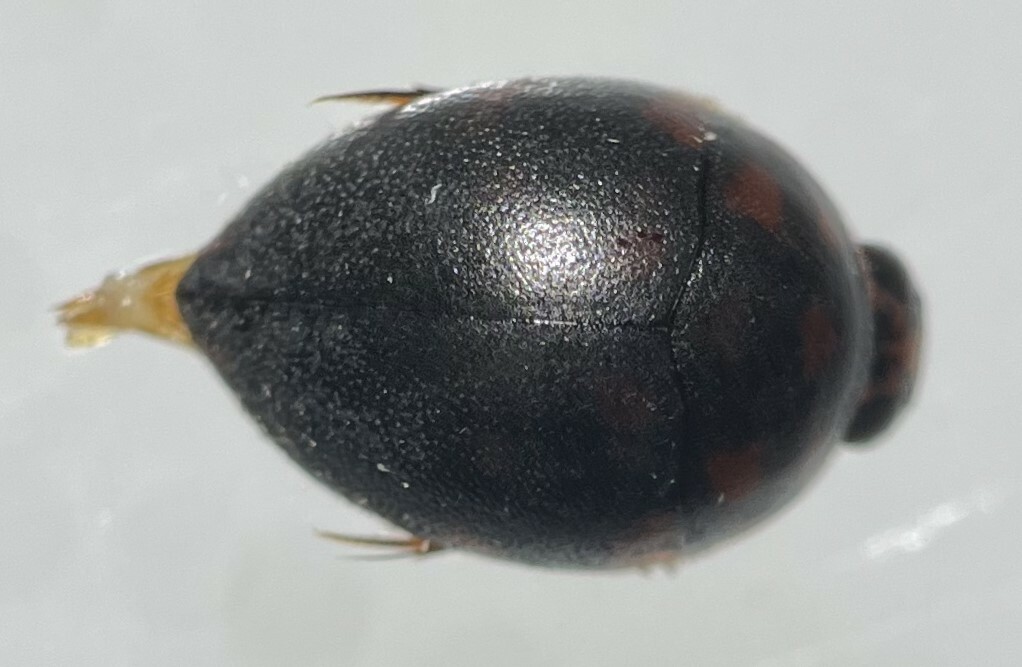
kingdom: Animalia
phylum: Arthropoda
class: Insecta
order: Coleoptera
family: Noteridae
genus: Suphis
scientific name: Suphis inflatus
